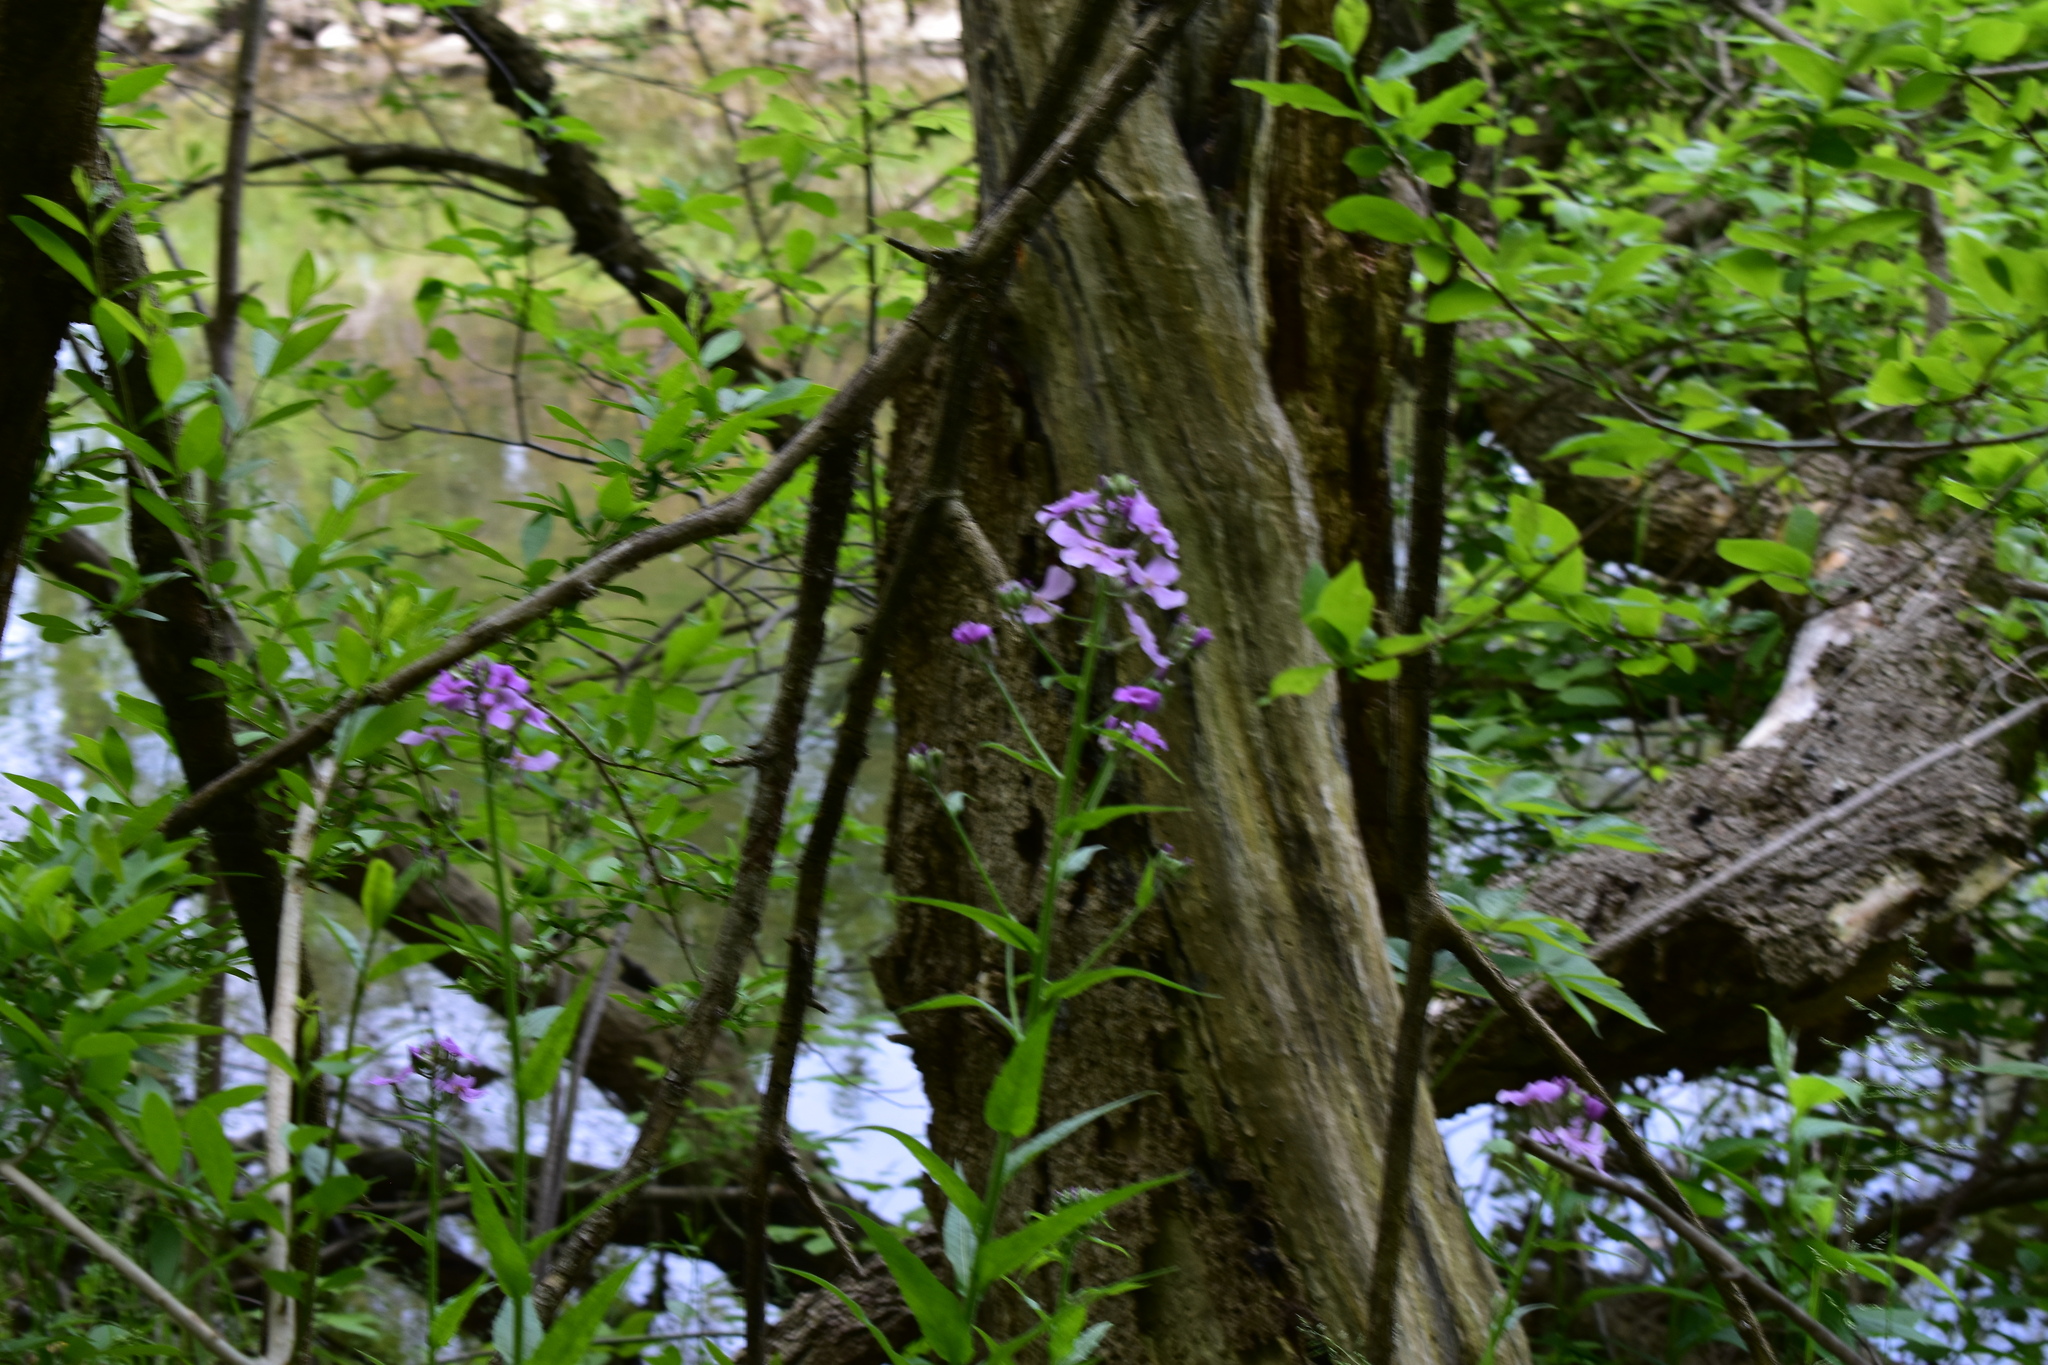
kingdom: Plantae
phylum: Tracheophyta
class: Magnoliopsida
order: Brassicales
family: Brassicaceae
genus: Hesperis
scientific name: Hesperis matronalis
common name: Dame's-violet
